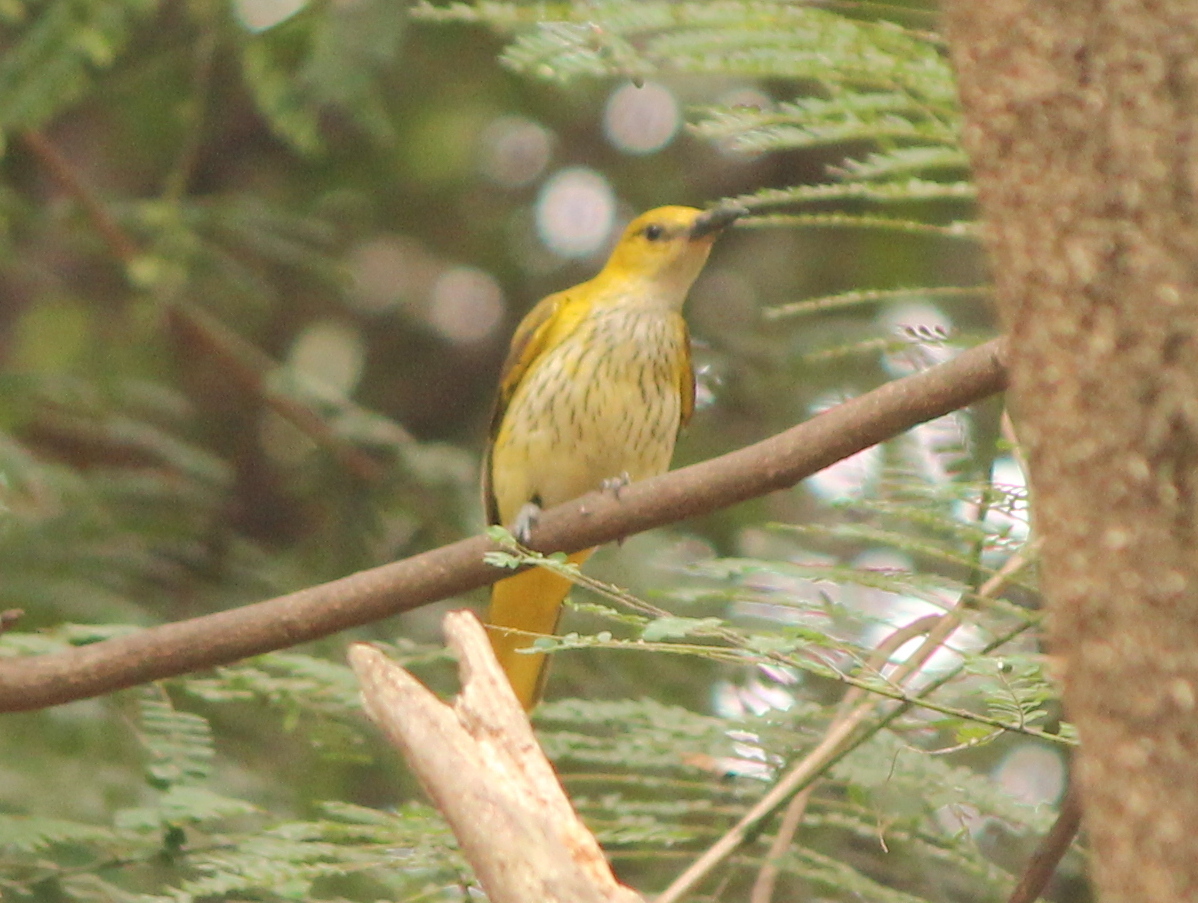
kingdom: Animalia
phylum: Chordata
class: Aves
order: Passeriformes
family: Oriolidae
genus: Oriolus
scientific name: Oriolus kundoo
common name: Indian golden oriole
